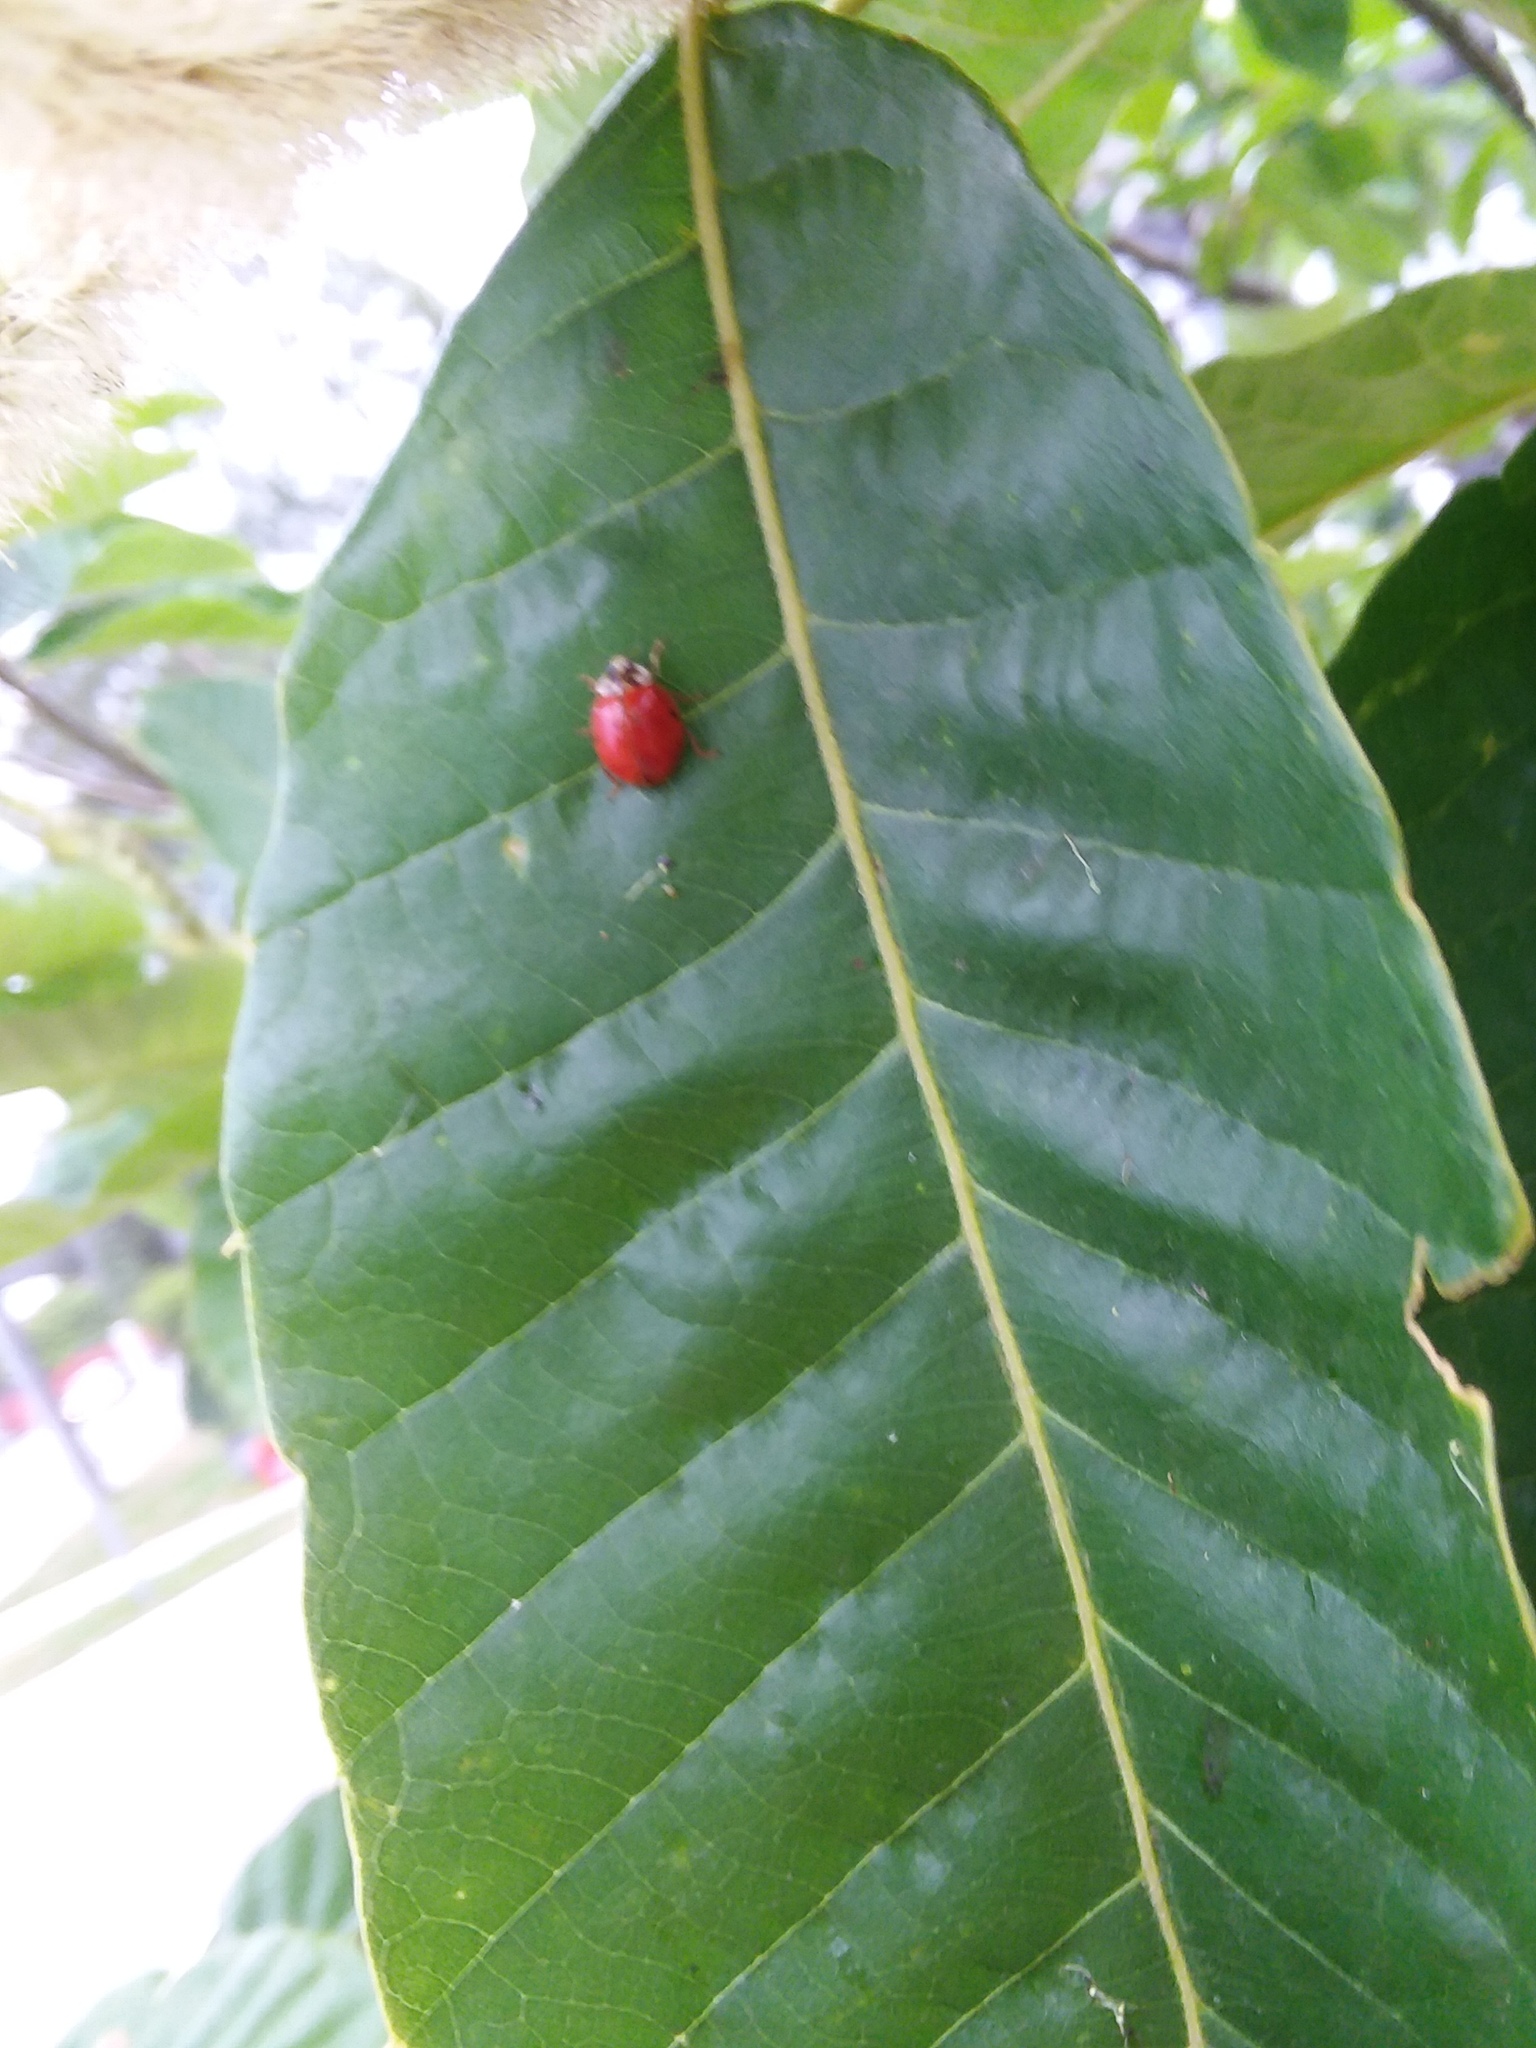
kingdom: Animalia
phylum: Arthropoda
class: Insecta
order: Coleoptera
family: Coccinellidae
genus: Harmonia
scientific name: Harmonia axyridis
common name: Harlequin ladybird
